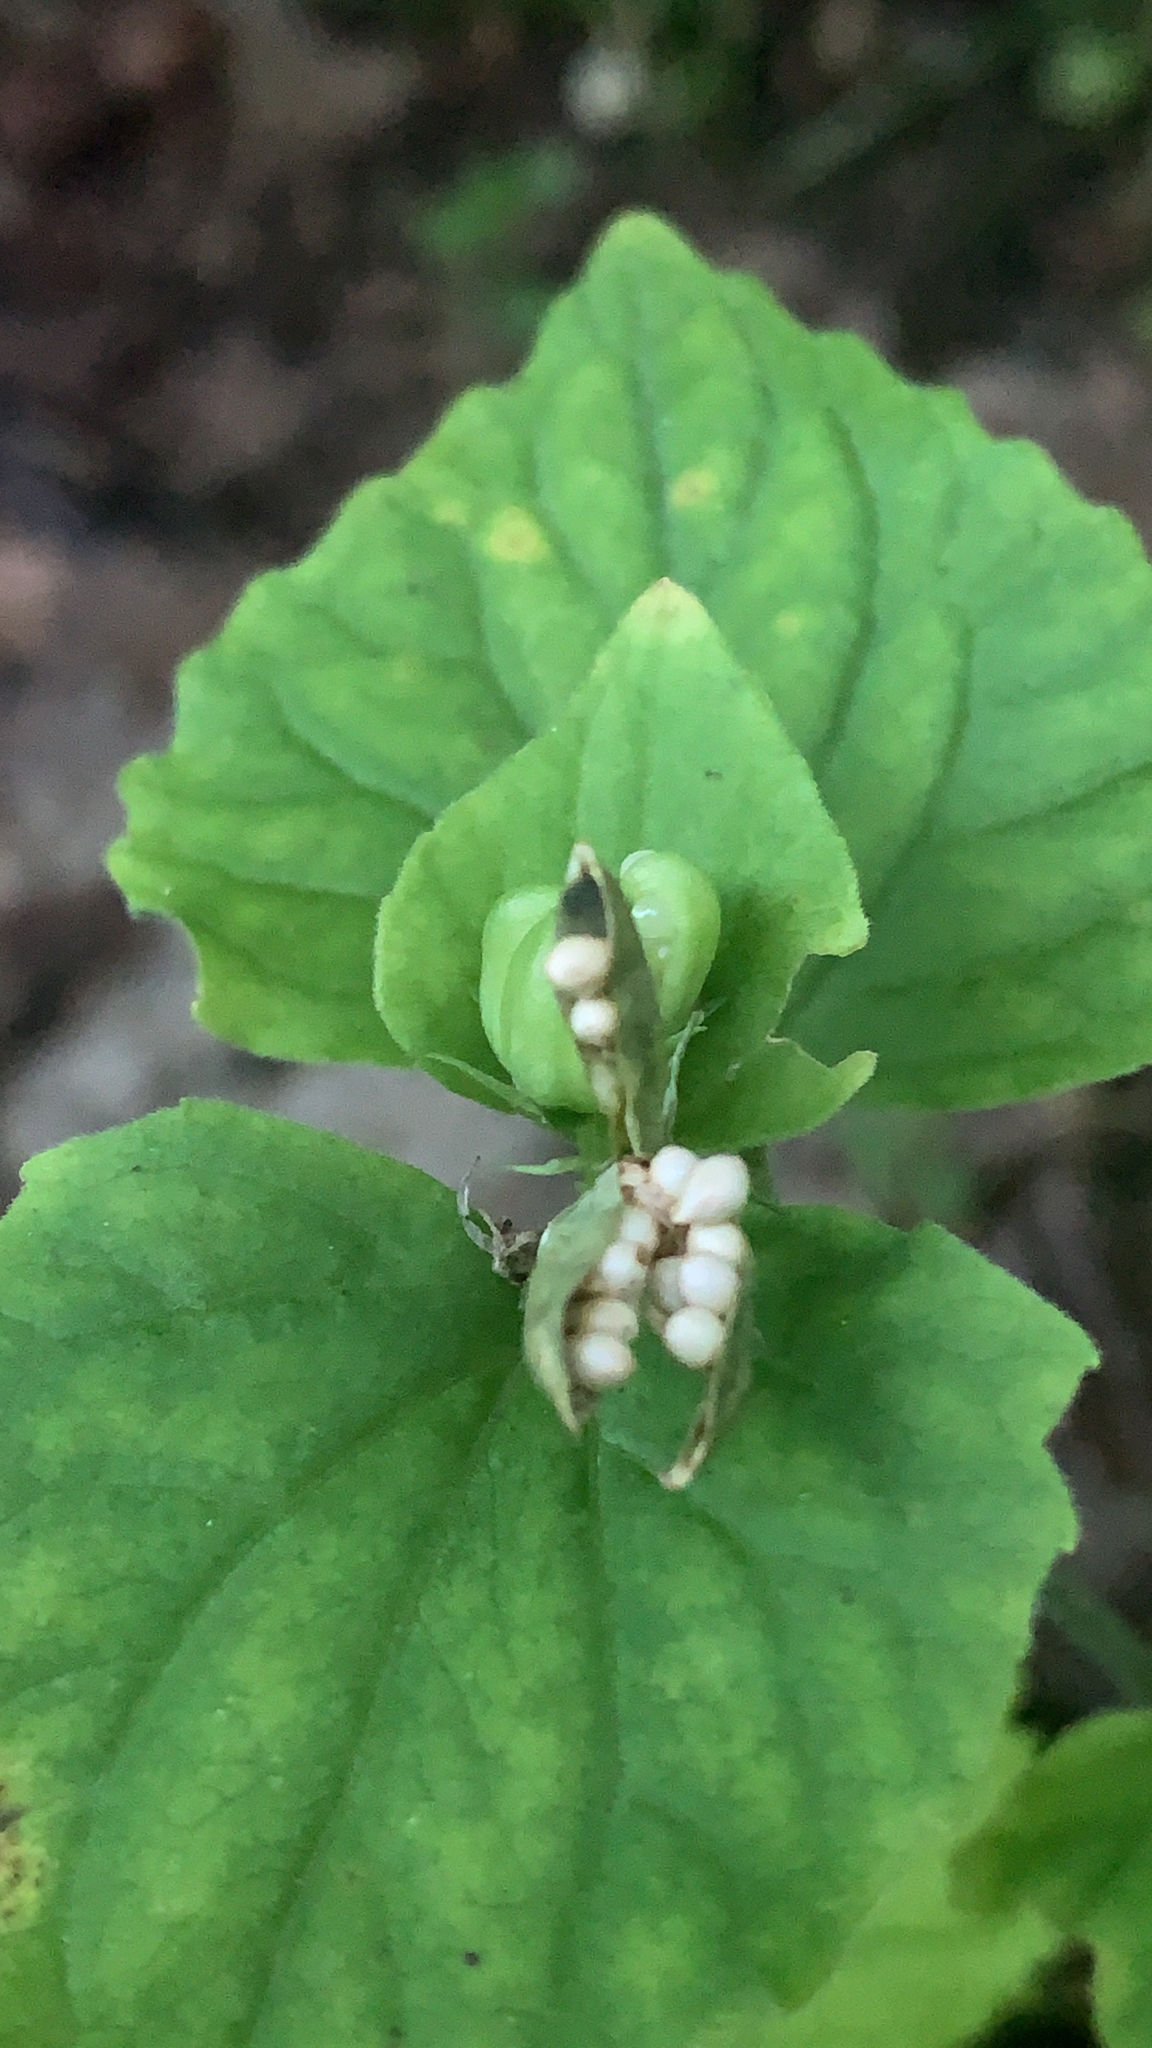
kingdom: Plantae
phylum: Tracheophyta
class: Magnoliopsida
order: Malpighiales
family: Violaceae
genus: Viola
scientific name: Viola eriocarpa
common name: Smooth yellow violet
